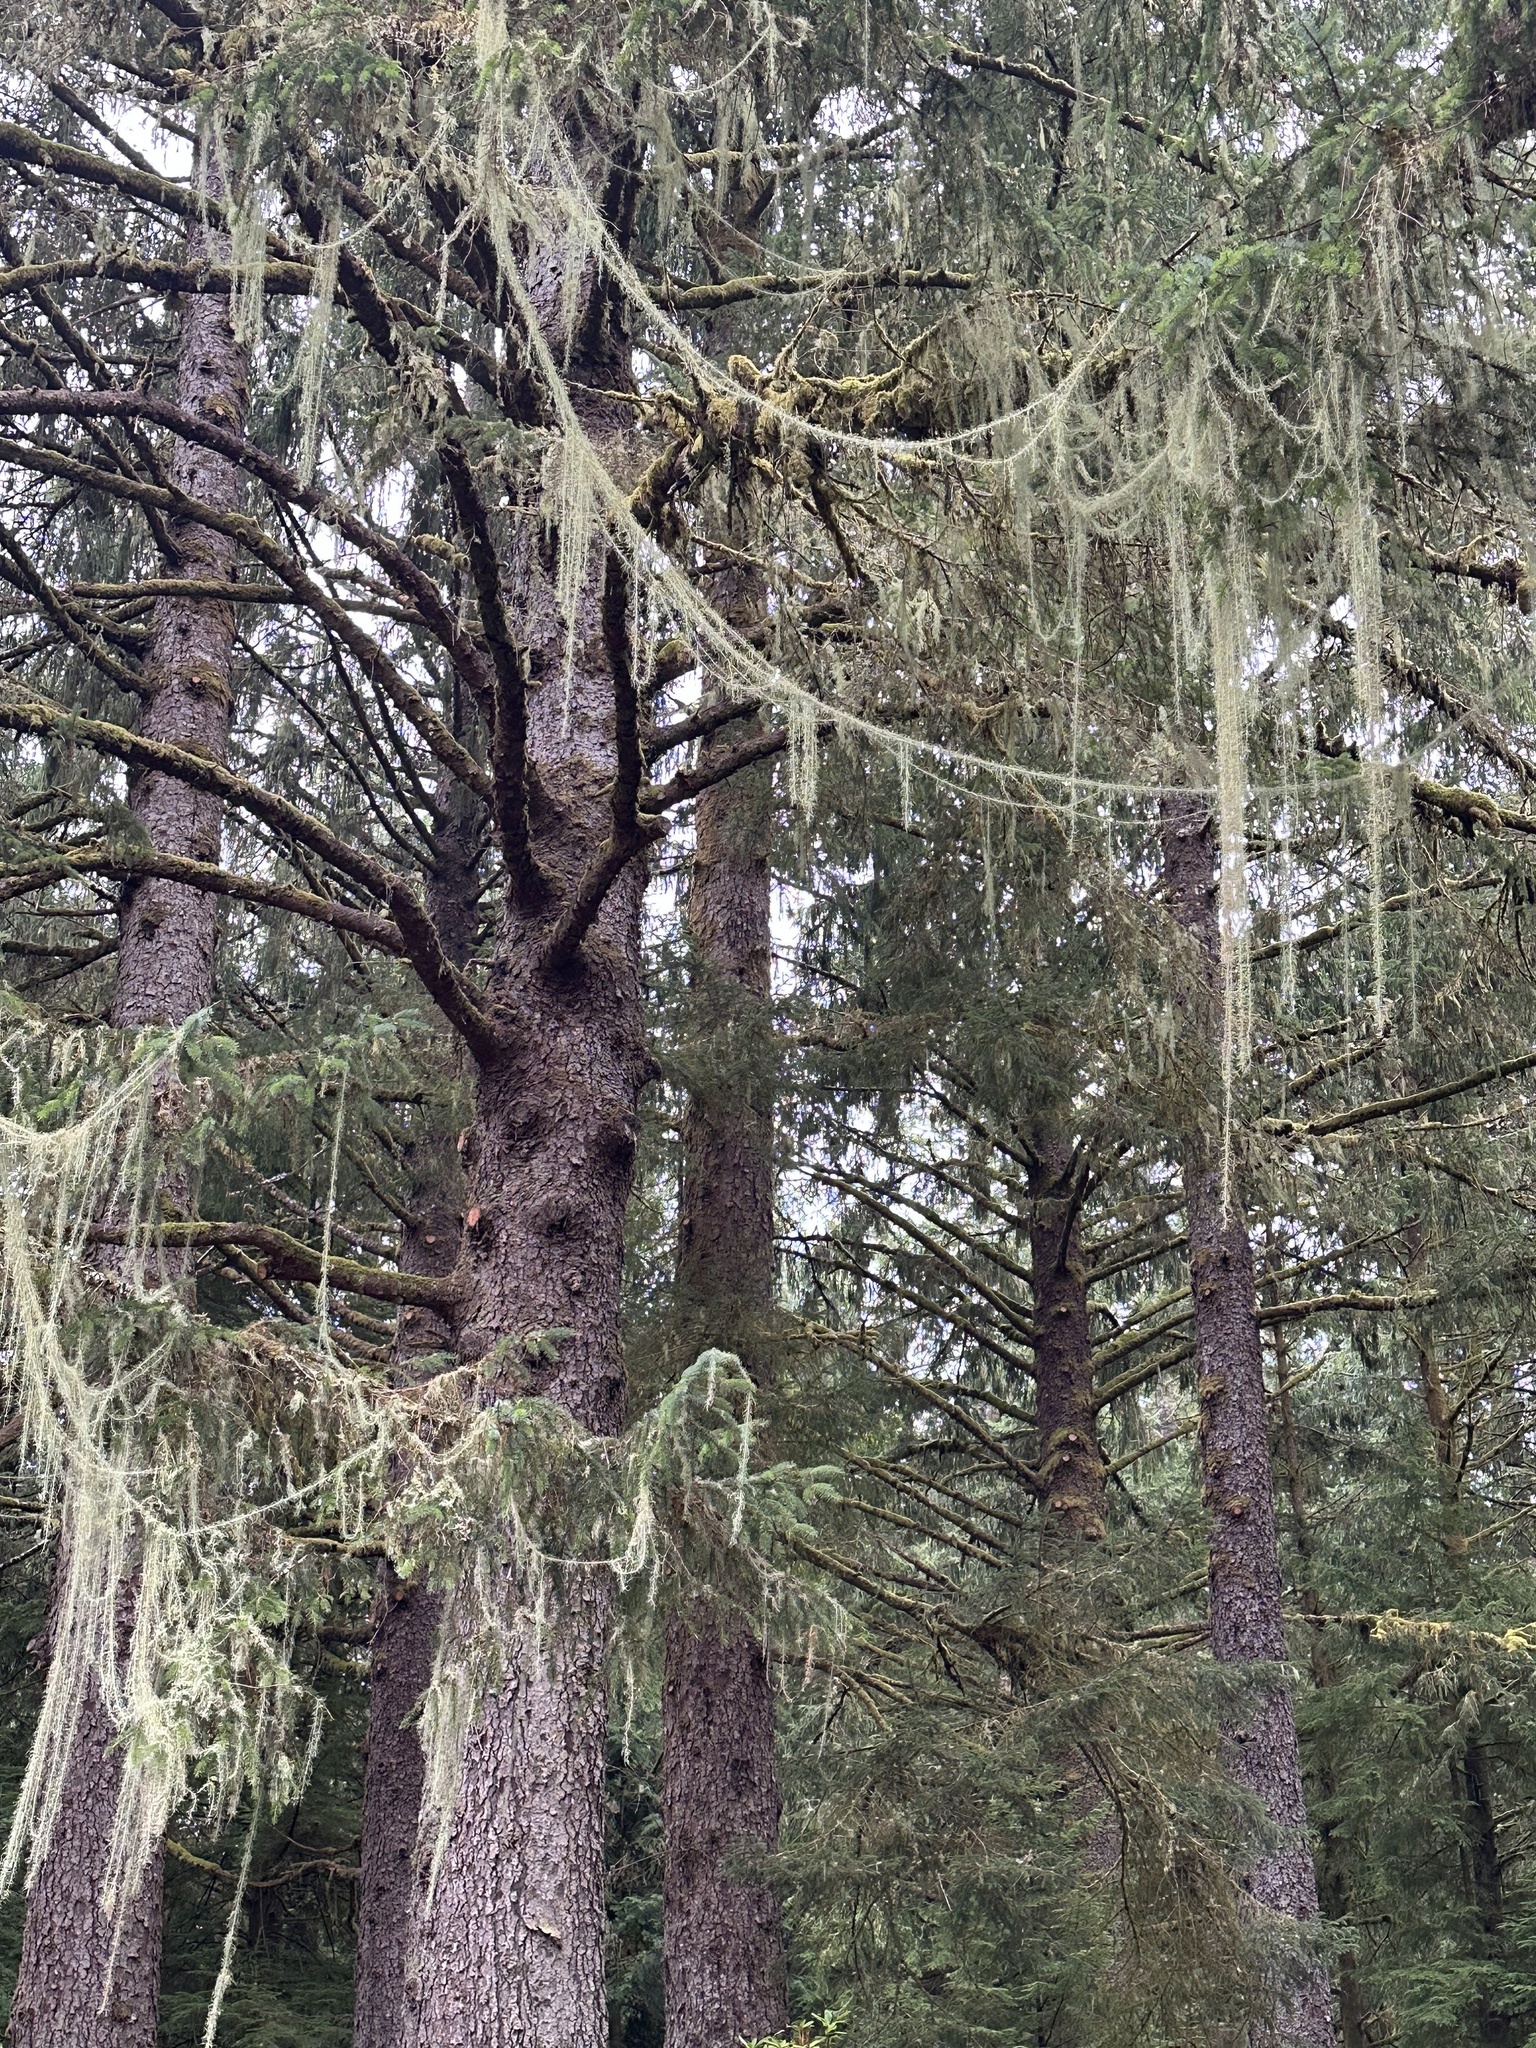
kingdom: Fungi
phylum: Ascomycota
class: Lecanoromycetes
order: Lecanorales
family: Parmeliaceae
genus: Dolichousnea
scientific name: Dolichousnea longissima
